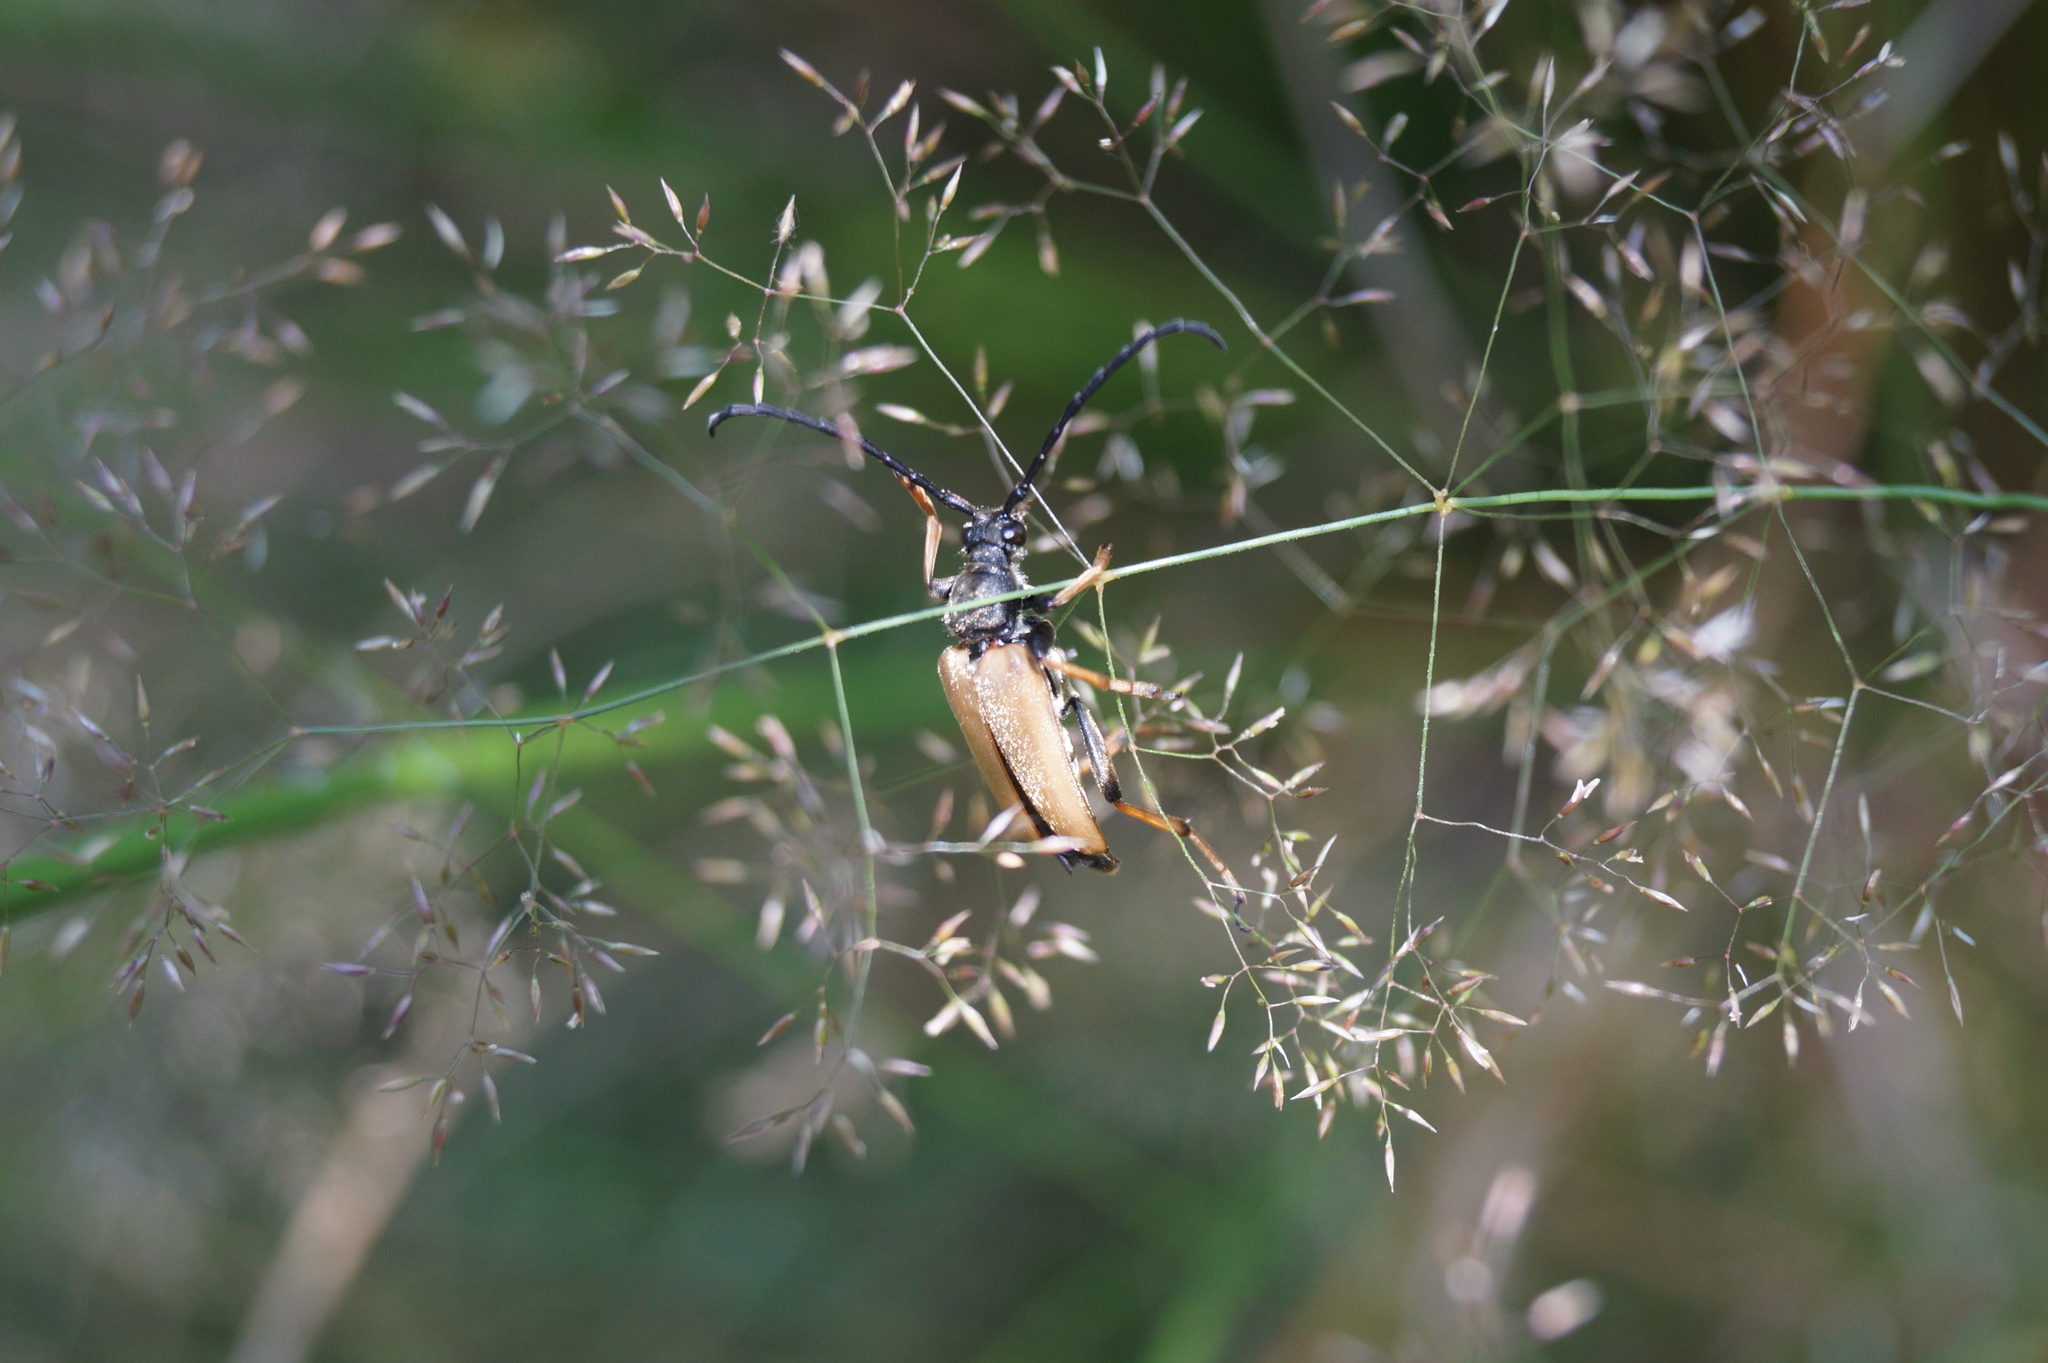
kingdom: Animalia
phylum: Arthropoda
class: Insecta
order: Coleoptera
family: Cerambycidae
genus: Stictoleptura
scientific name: Stictoleptura rubra
